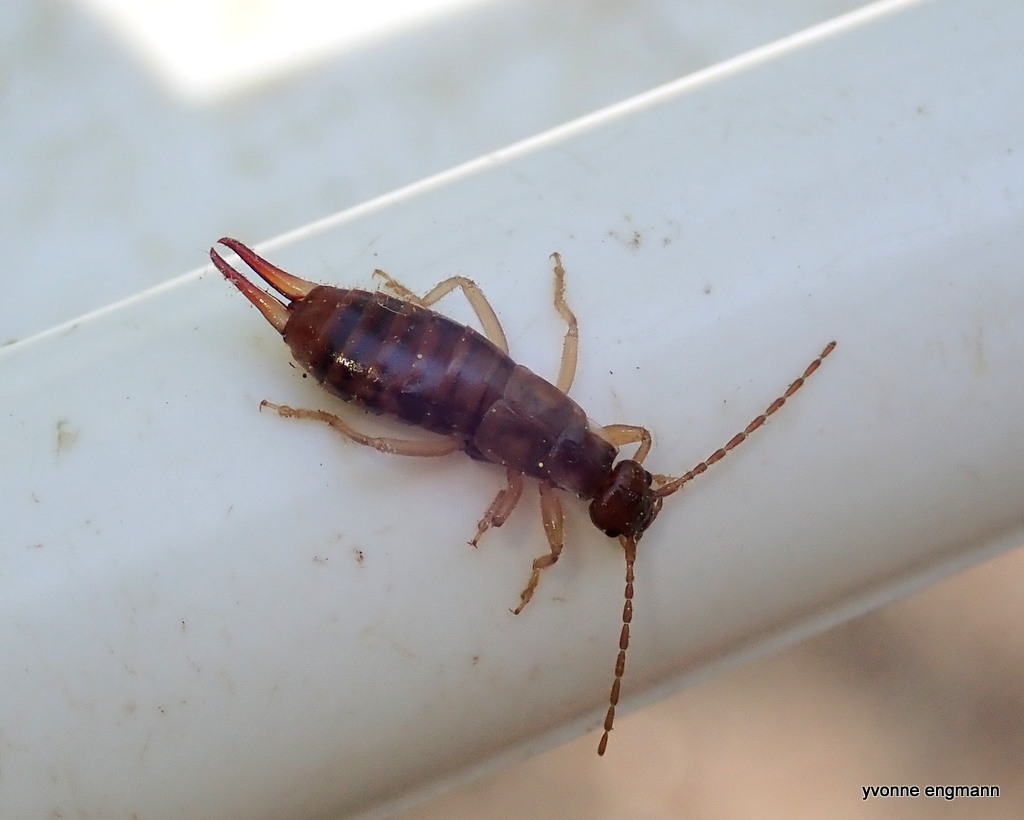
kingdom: Animalia
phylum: Arthropoda
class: Insecta
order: Dermaptera
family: Forficulidae
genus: Apterygida
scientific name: Apterygida albipennis
